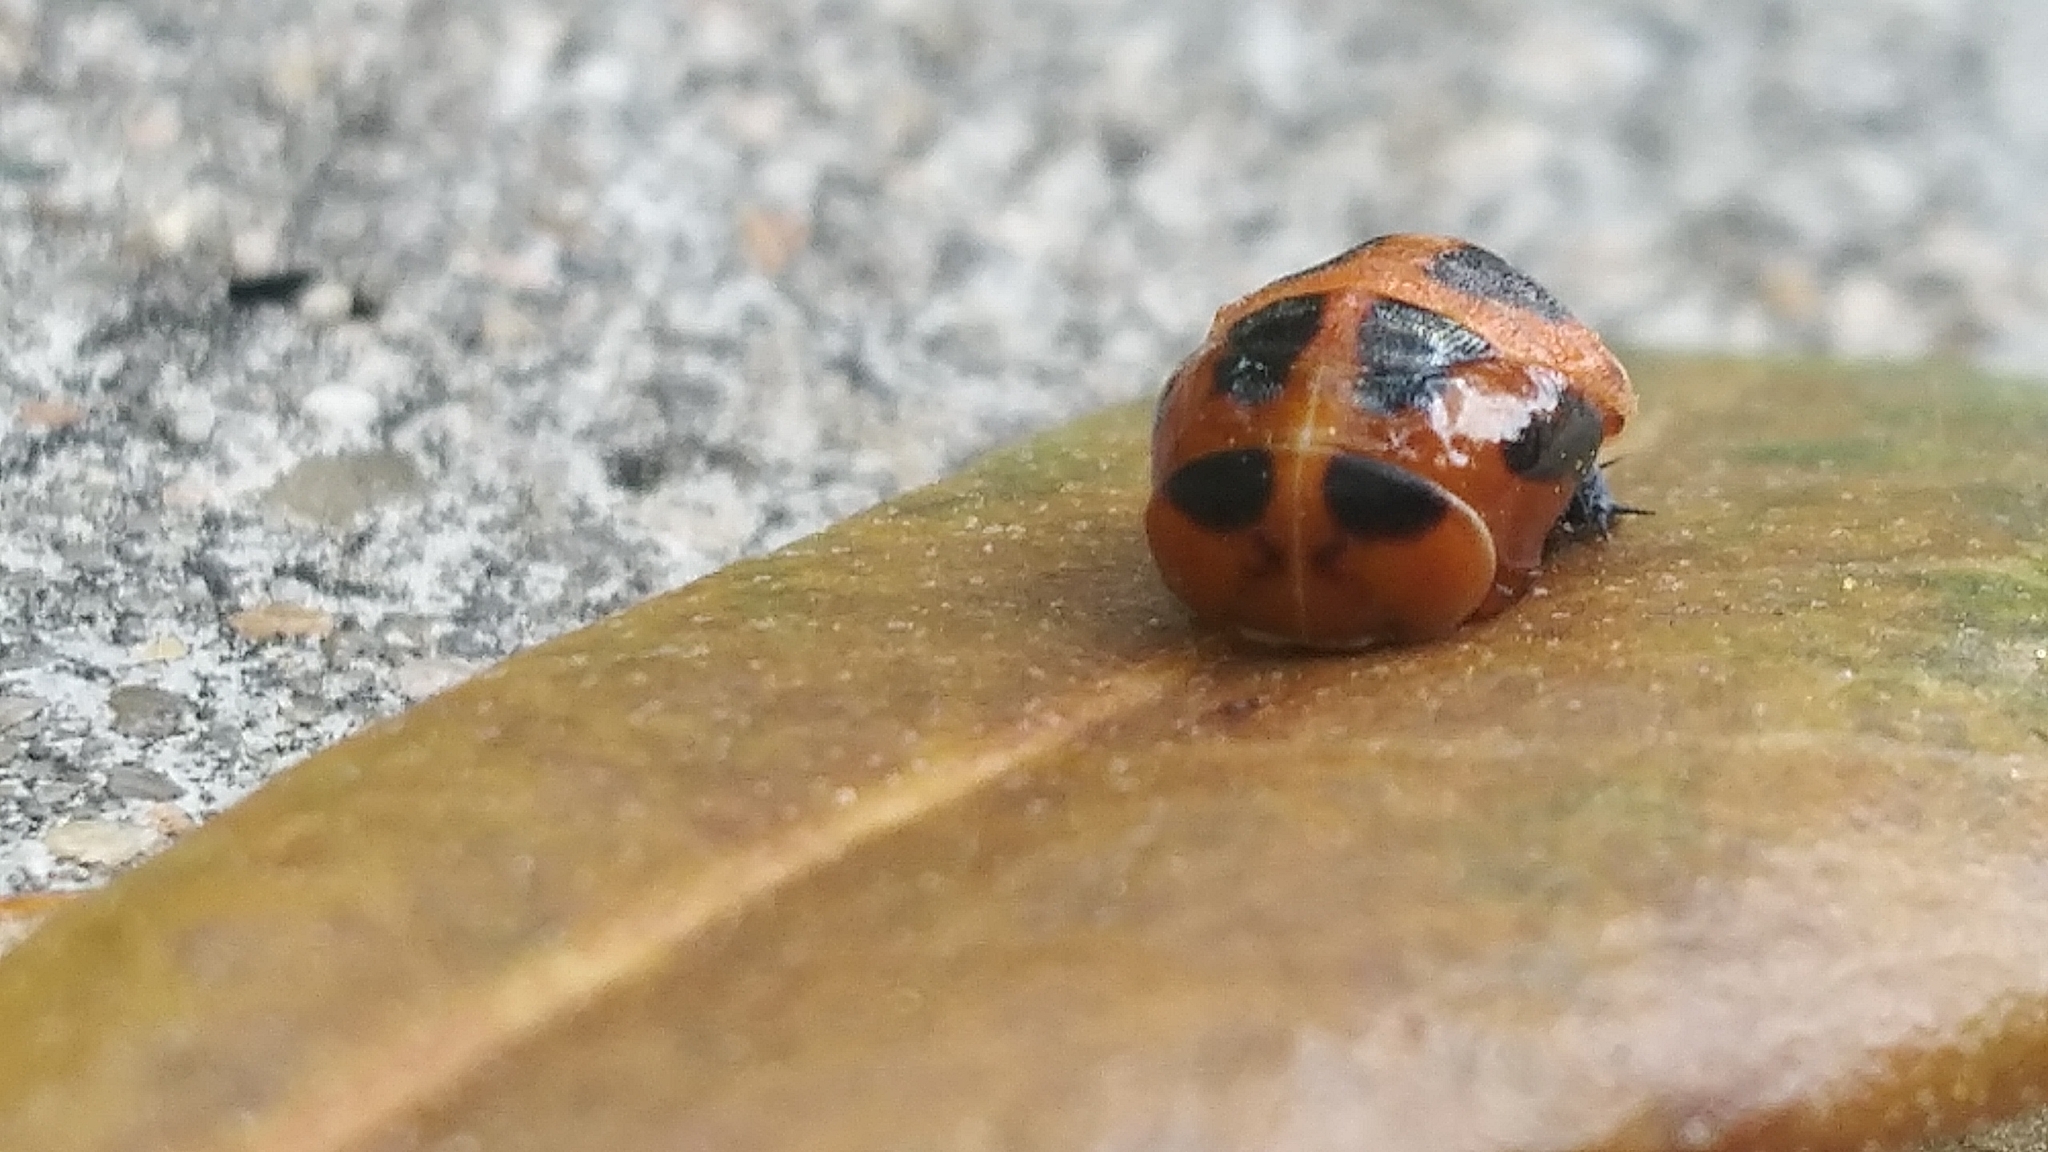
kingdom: Animalia
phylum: Arthropoda
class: Insecta
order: Coleoptera
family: Coccinellidae
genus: Harmonia
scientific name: Harmonia axyridis
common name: Harlequin ladybird
